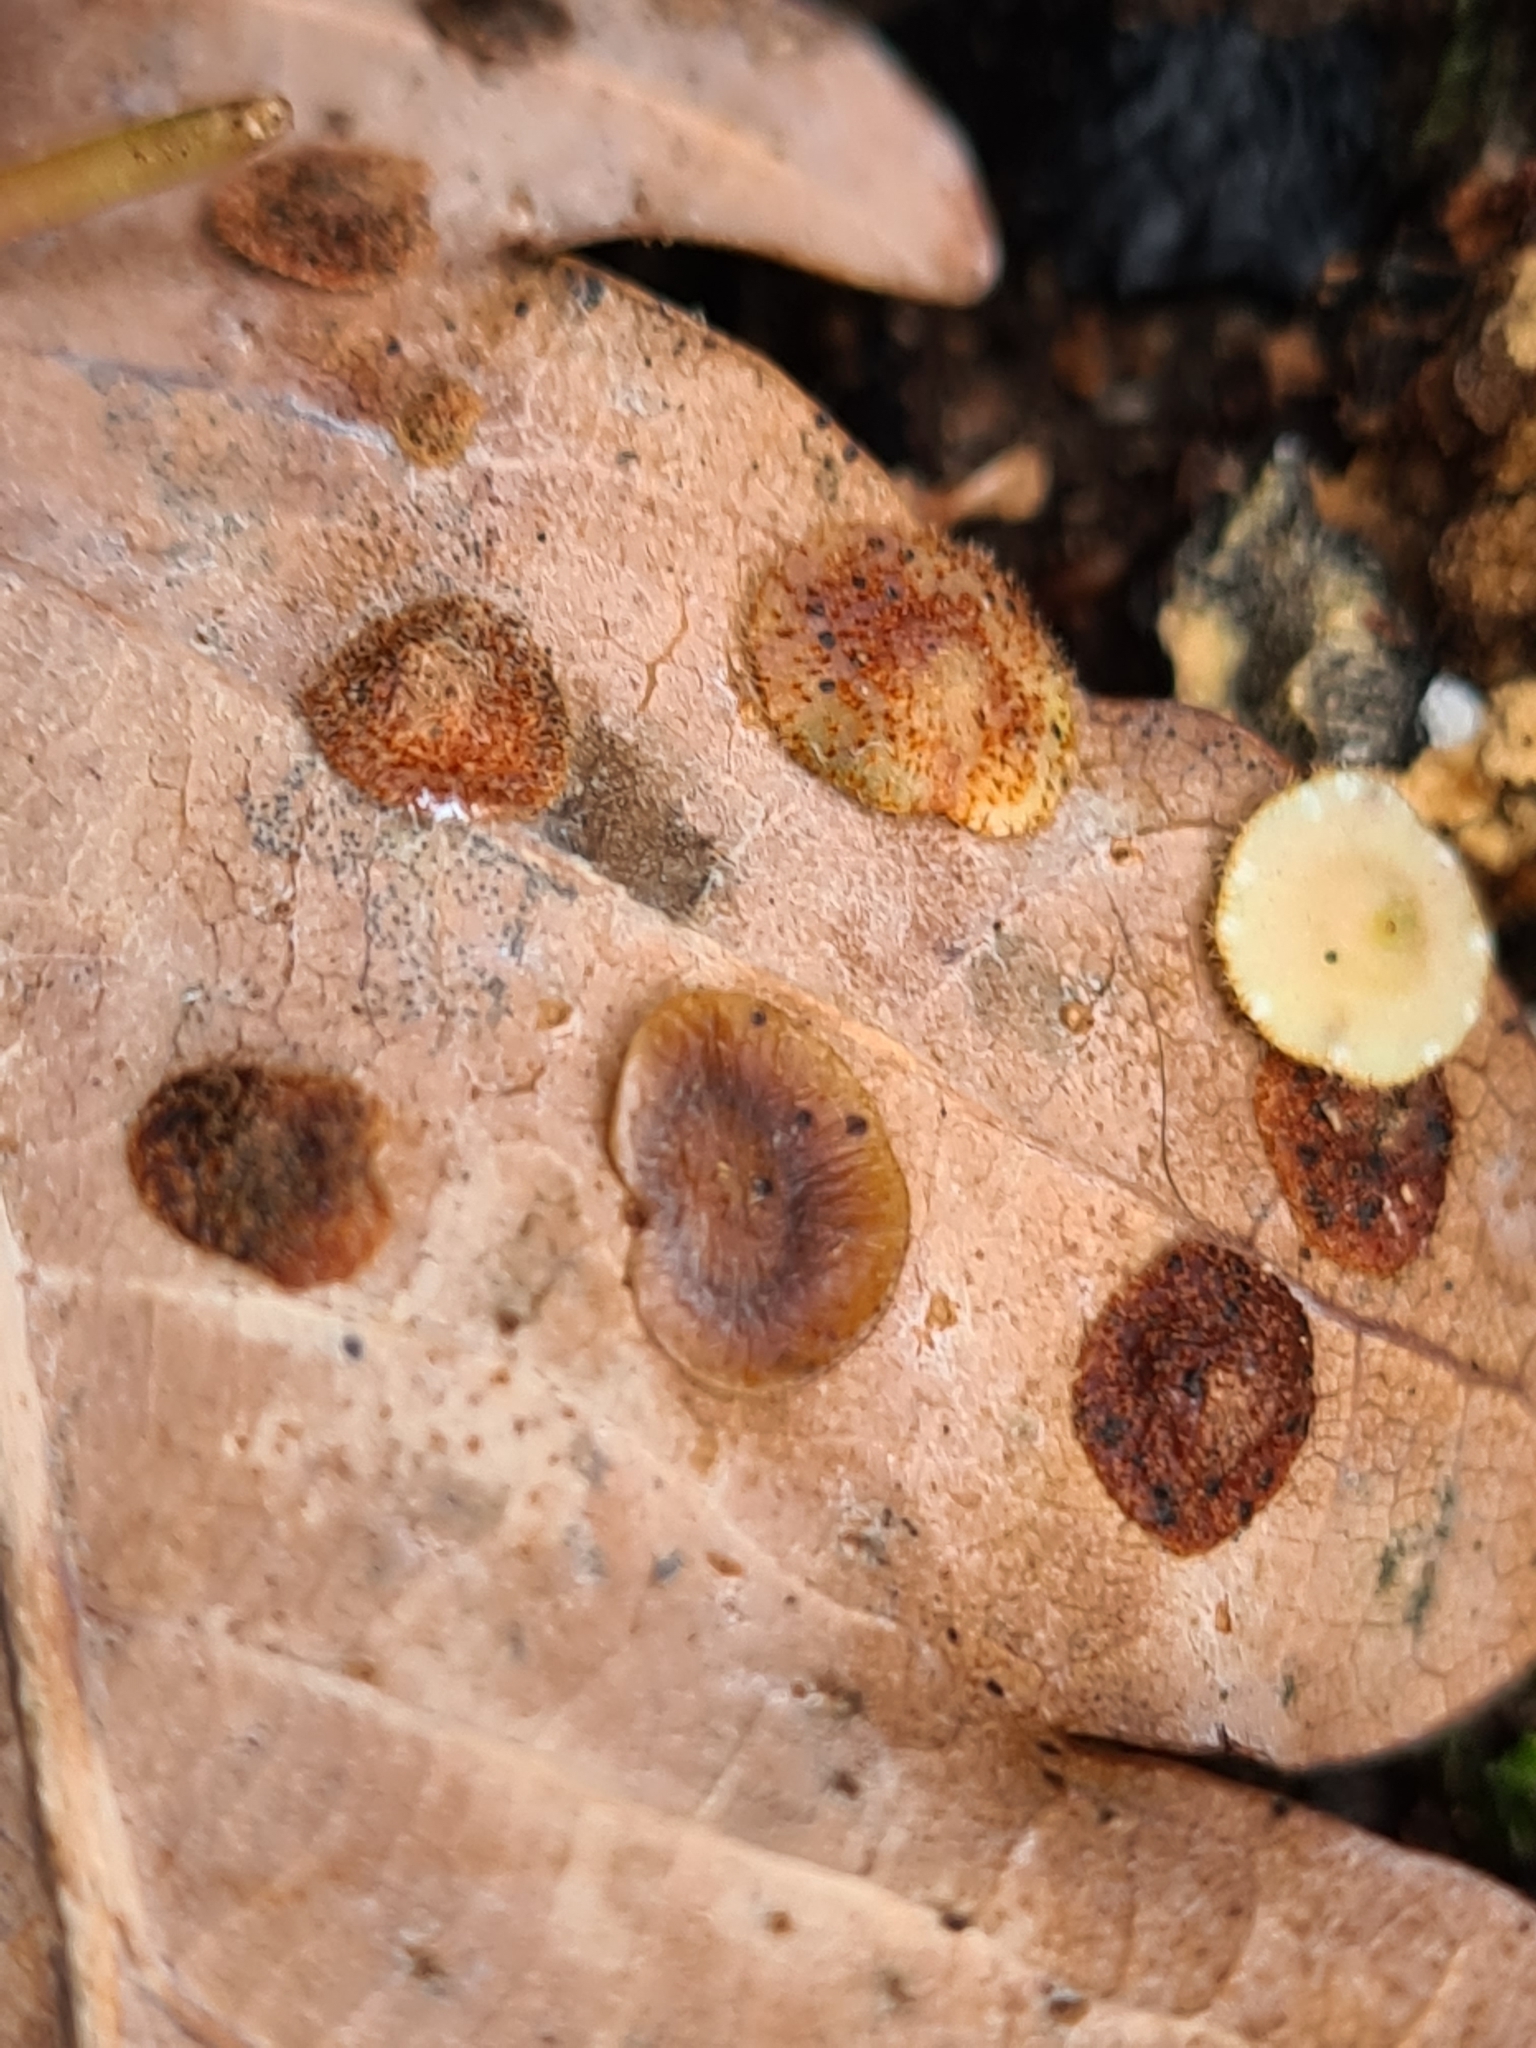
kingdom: Animalia
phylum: Arthropoda
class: Insecta
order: Hymenoptera
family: Cynipidae
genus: Neuroterus
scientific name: Neuroterus quercusbaccarum
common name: Common spangle gall
